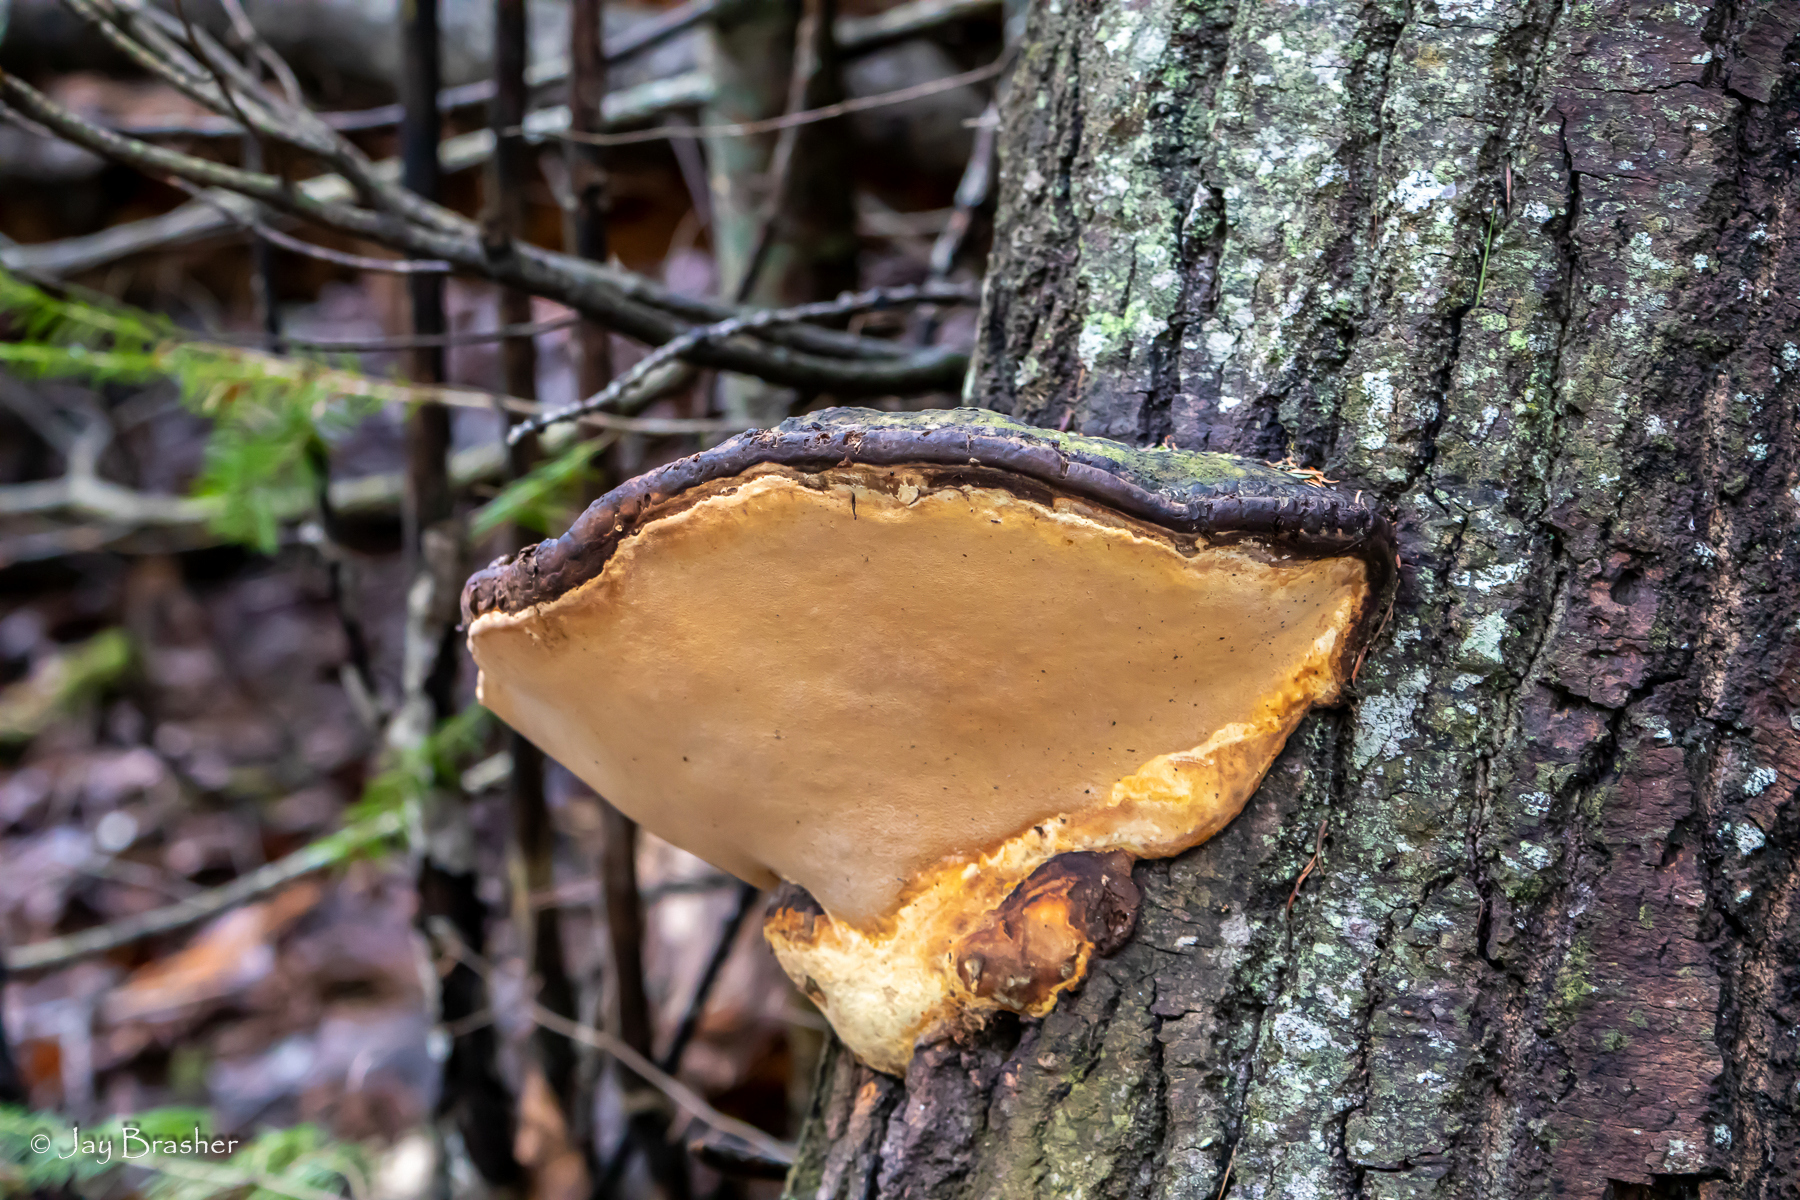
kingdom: Fungi
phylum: Basidiomycota
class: Agaricomycetes
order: Polyporales
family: Fomitopsidaceae
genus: Fomitopsis
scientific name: Fomitopsis mounceae
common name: Northern red belt
